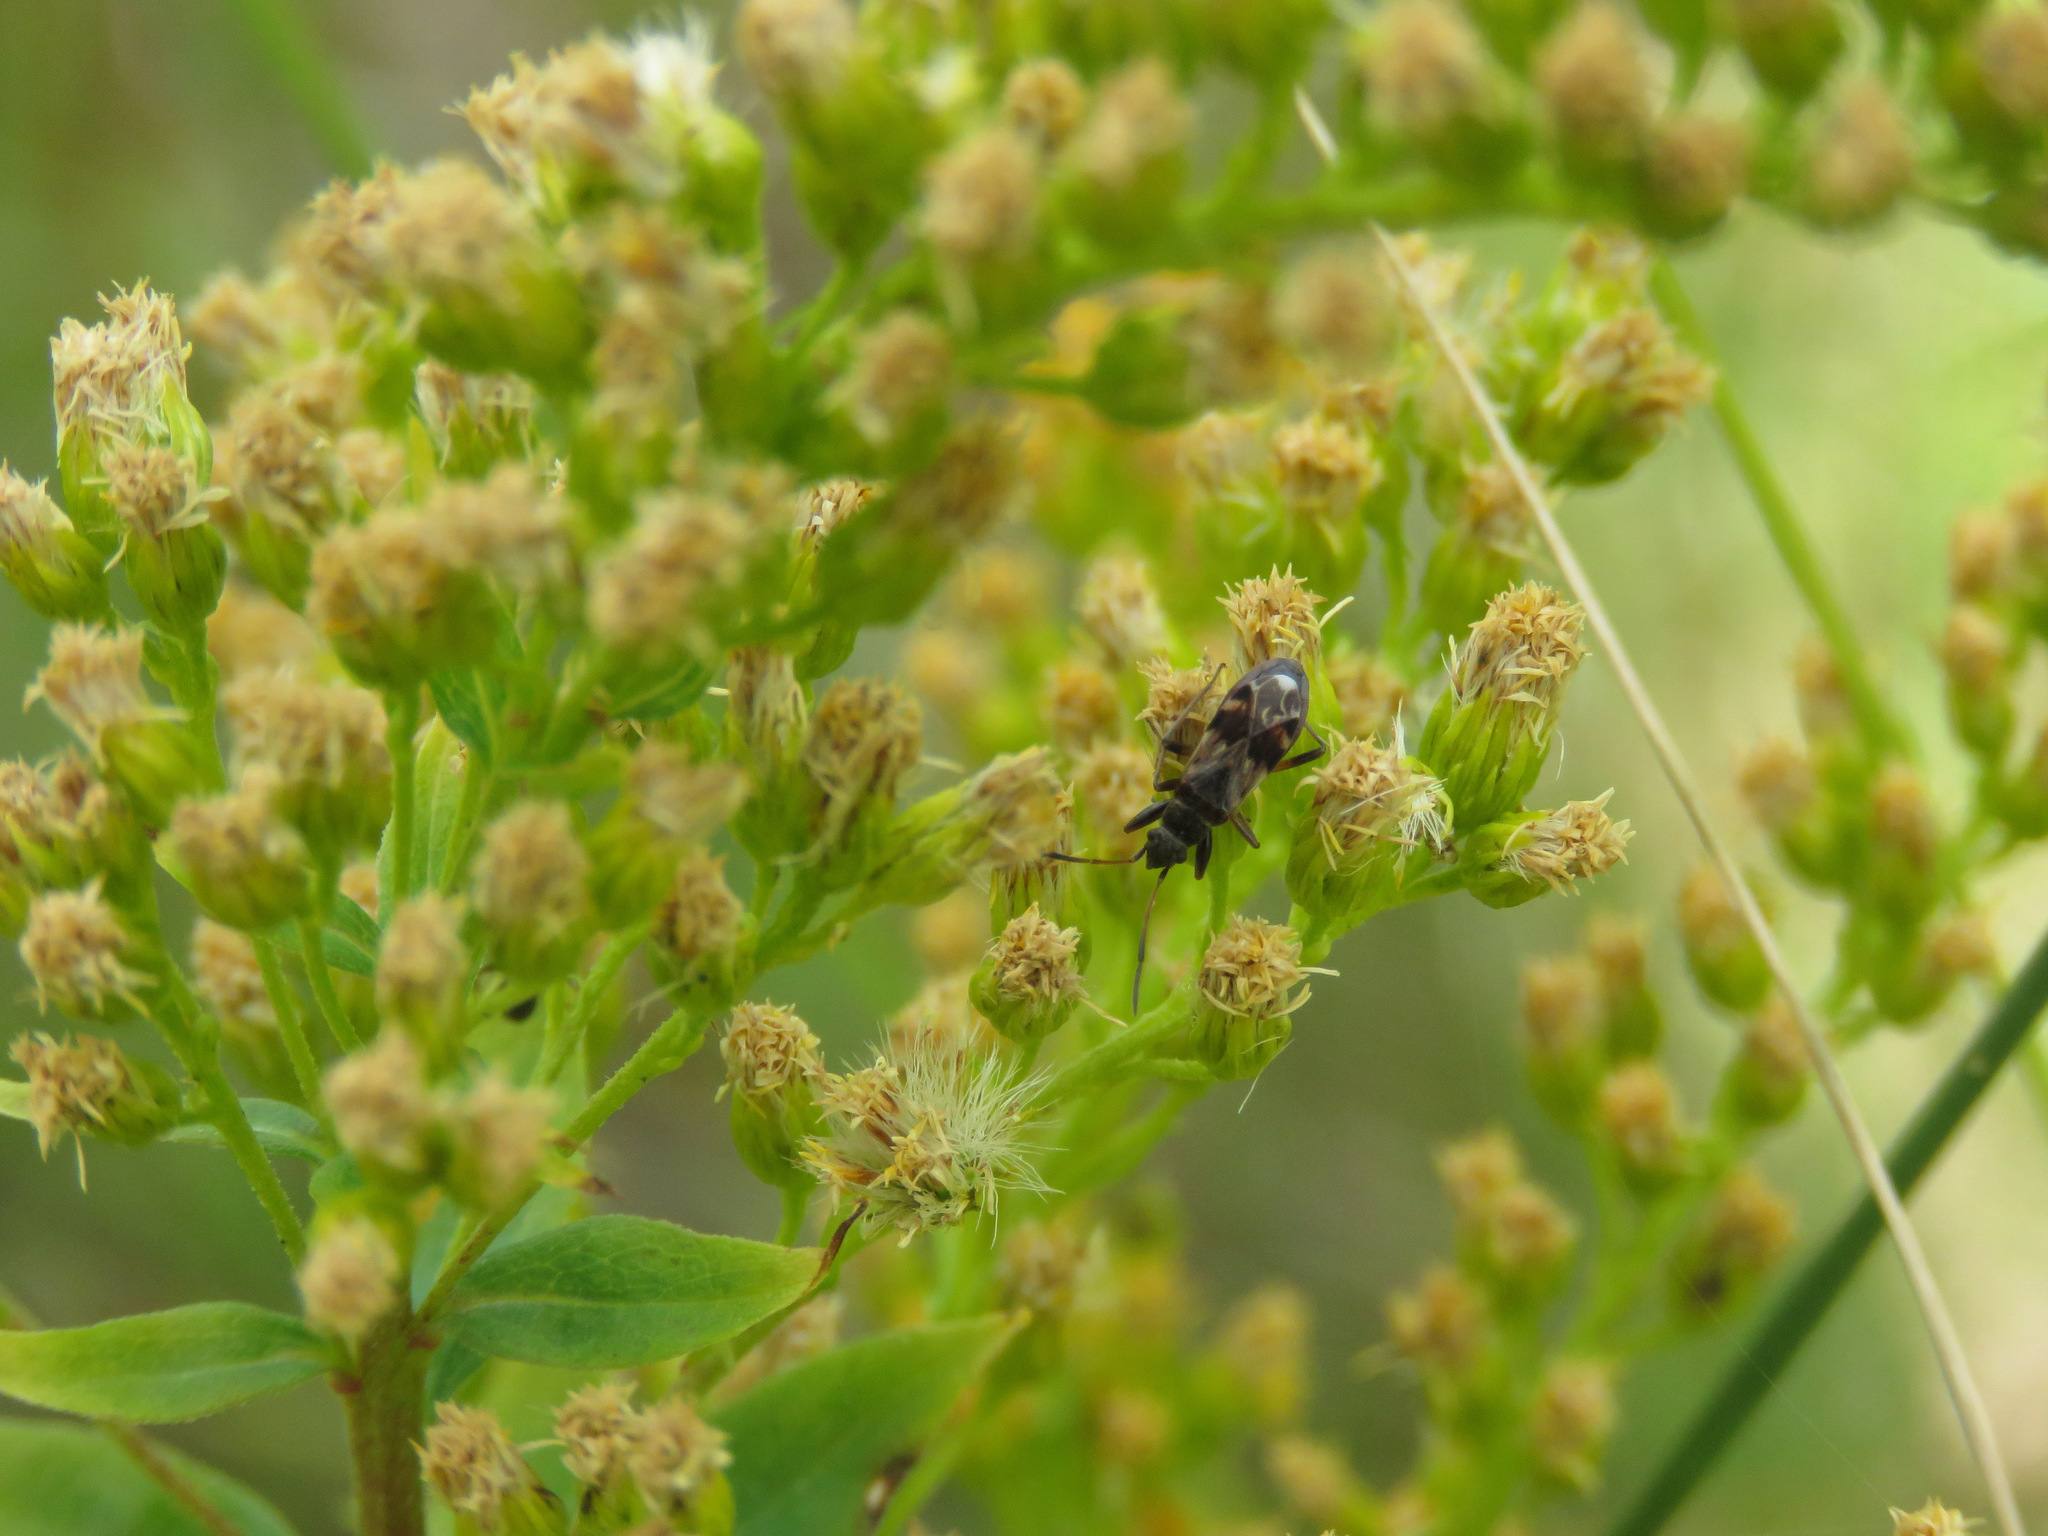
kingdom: Animalia
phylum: Arthropoda
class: Insecta
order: Hemiptera
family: Rhyparochromidae
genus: Ligyrocoris
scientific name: Ligyrocoris sylvestris
